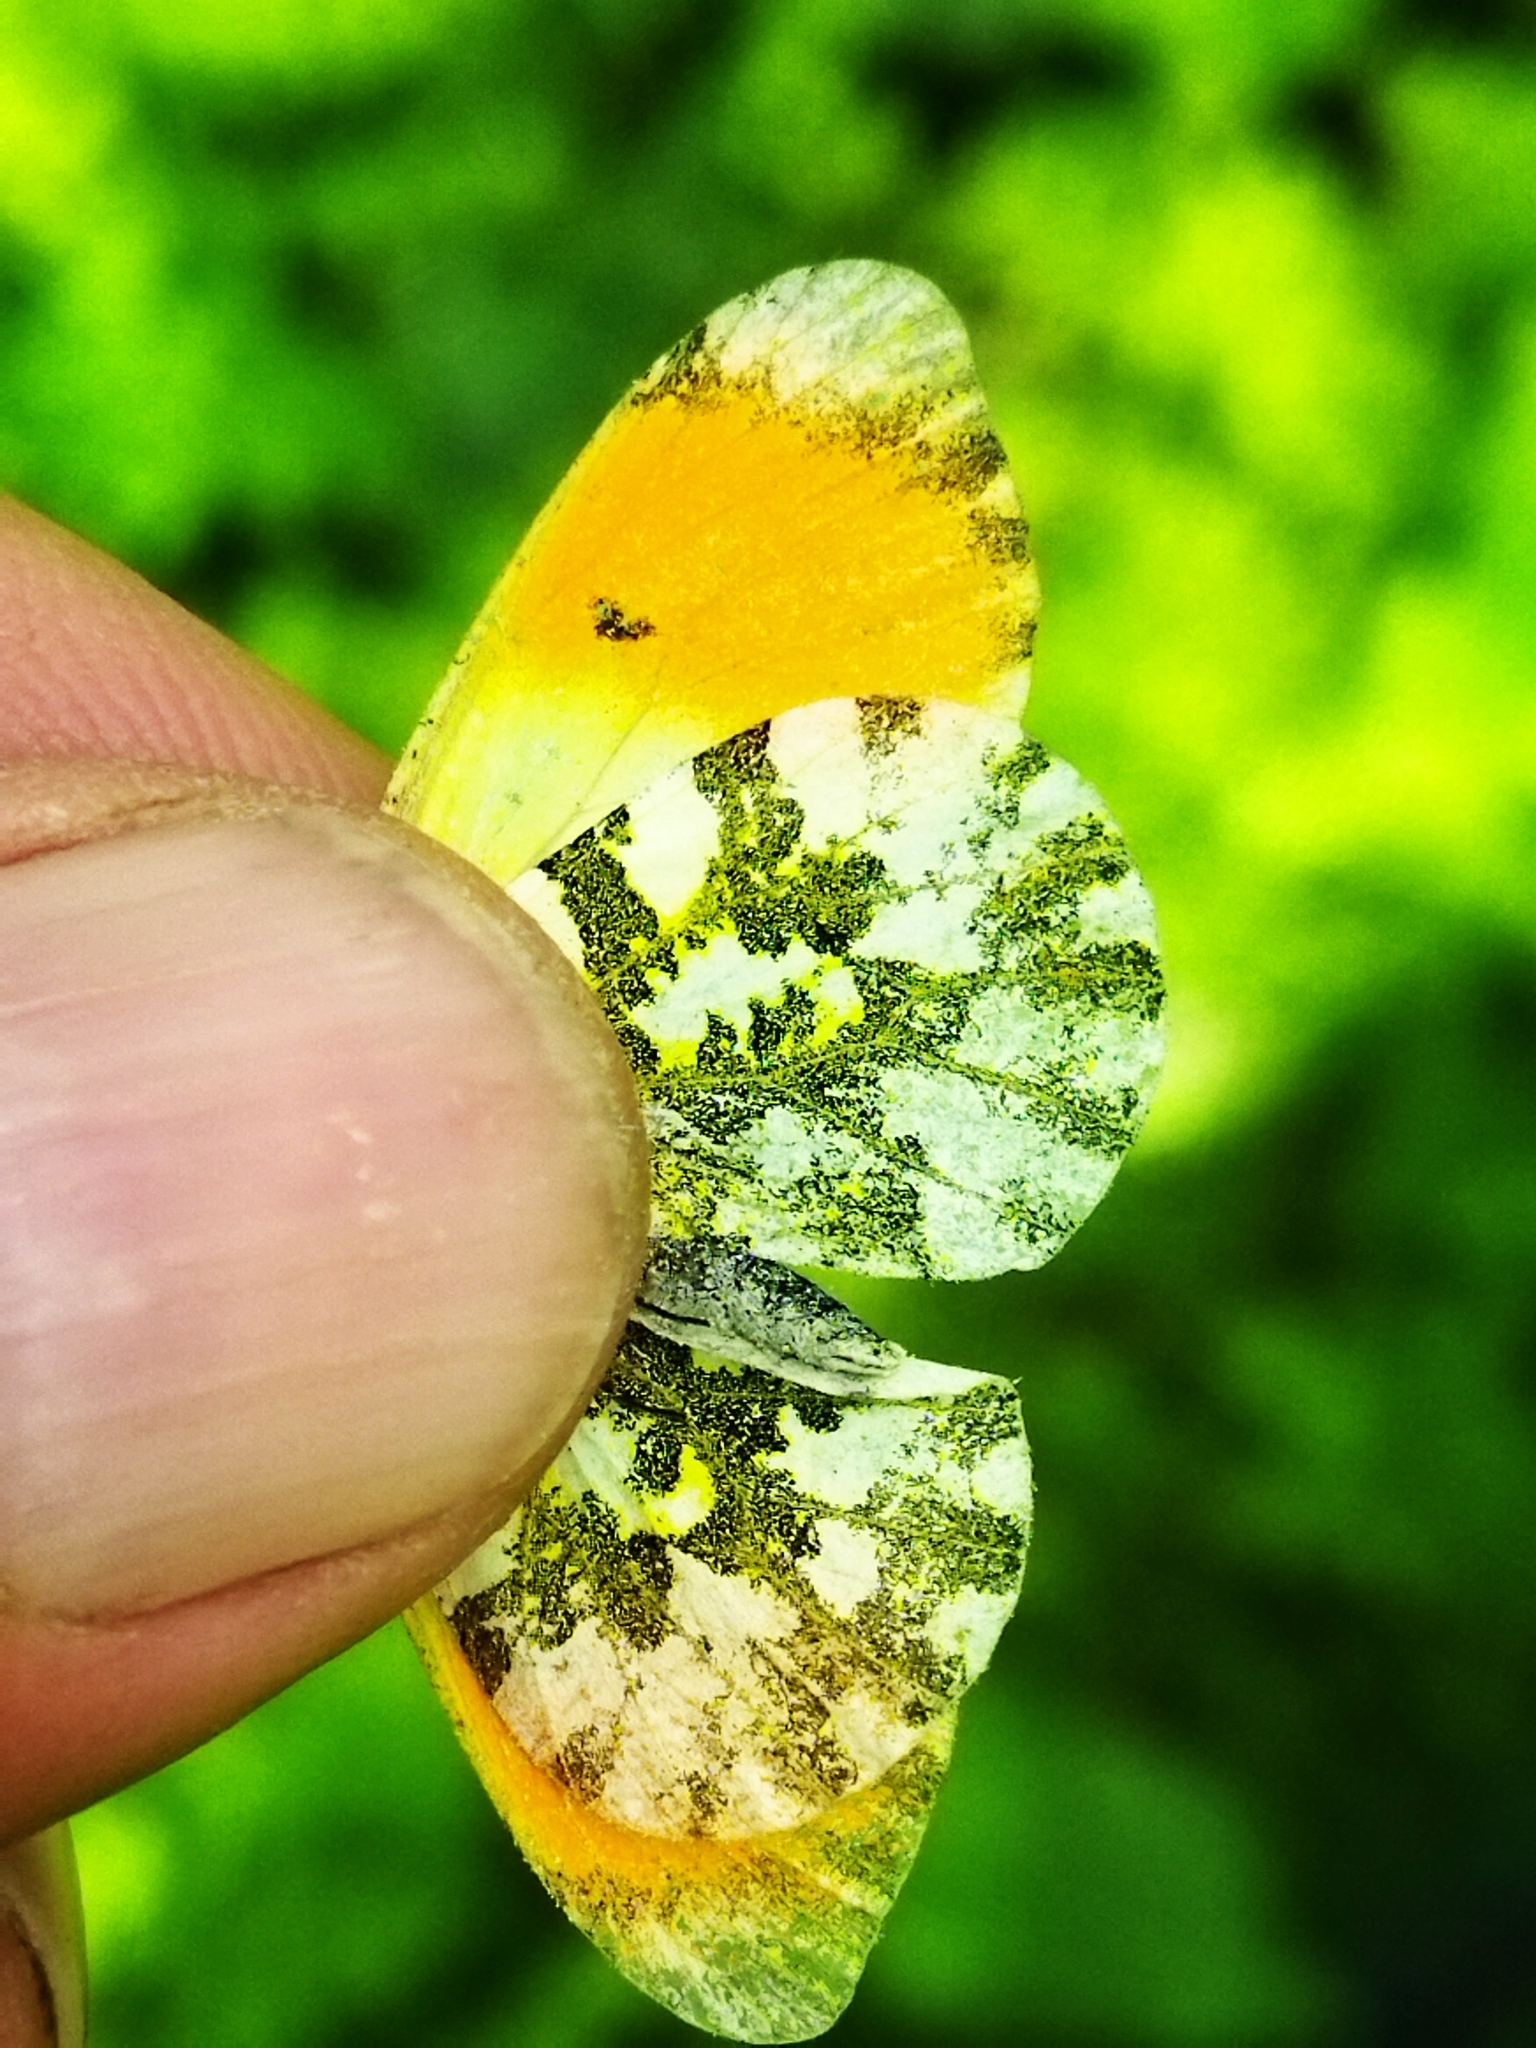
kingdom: Animalia
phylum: Arthropoda
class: Insecta
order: Lepidoptera
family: Pieridae
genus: Anthocharis
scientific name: Anthocharis cardamines
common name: Orange-tip
